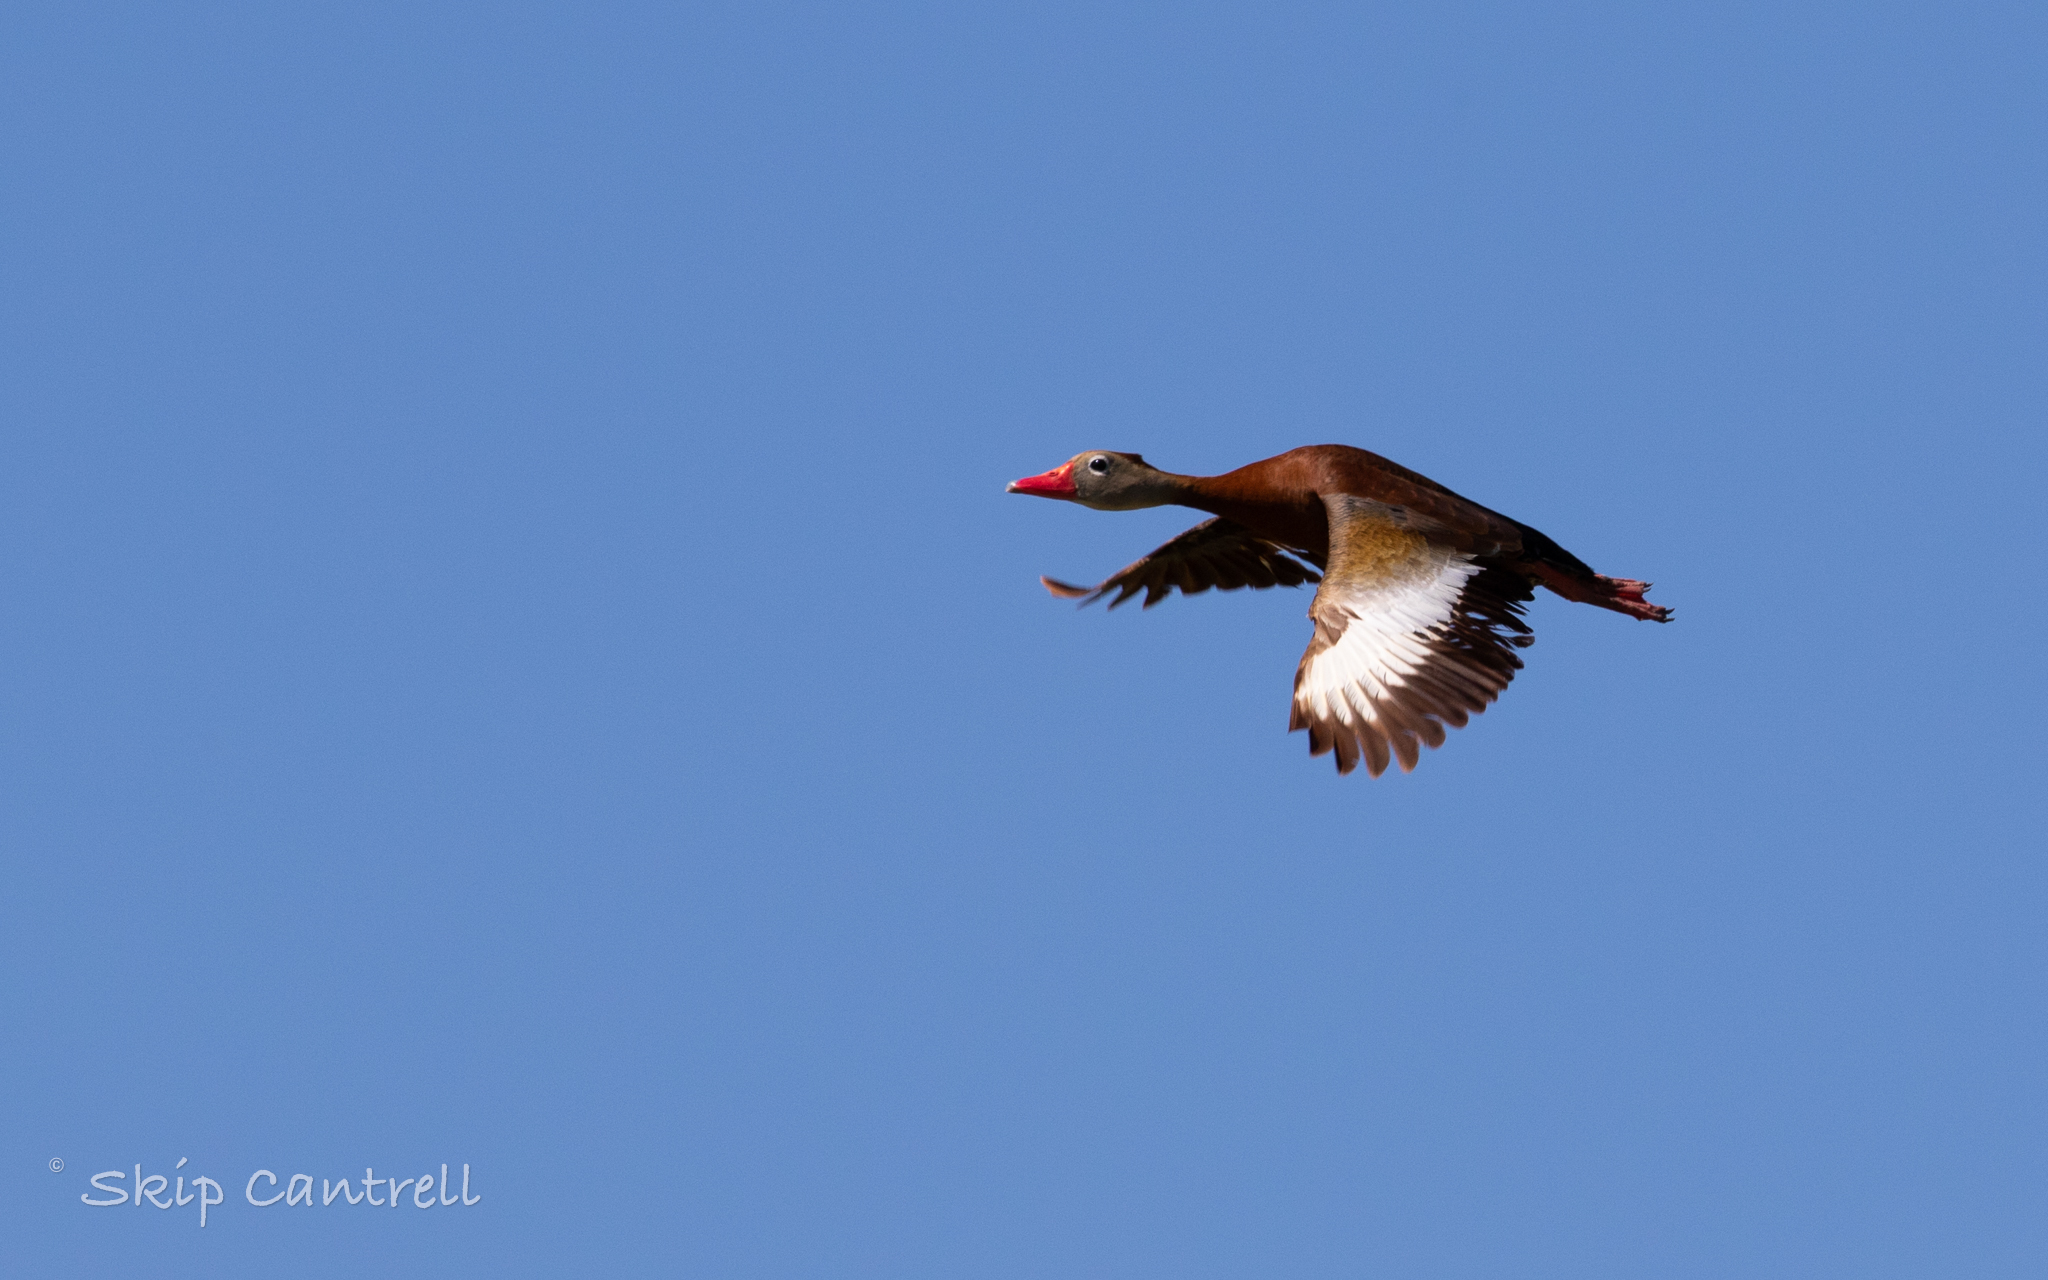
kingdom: Animalia
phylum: Chordata
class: Aves
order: Anseriformes
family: Anatidae
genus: Dendrocygna
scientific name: Dendrocygna autumnalis
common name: Black-bellied whistling duck
